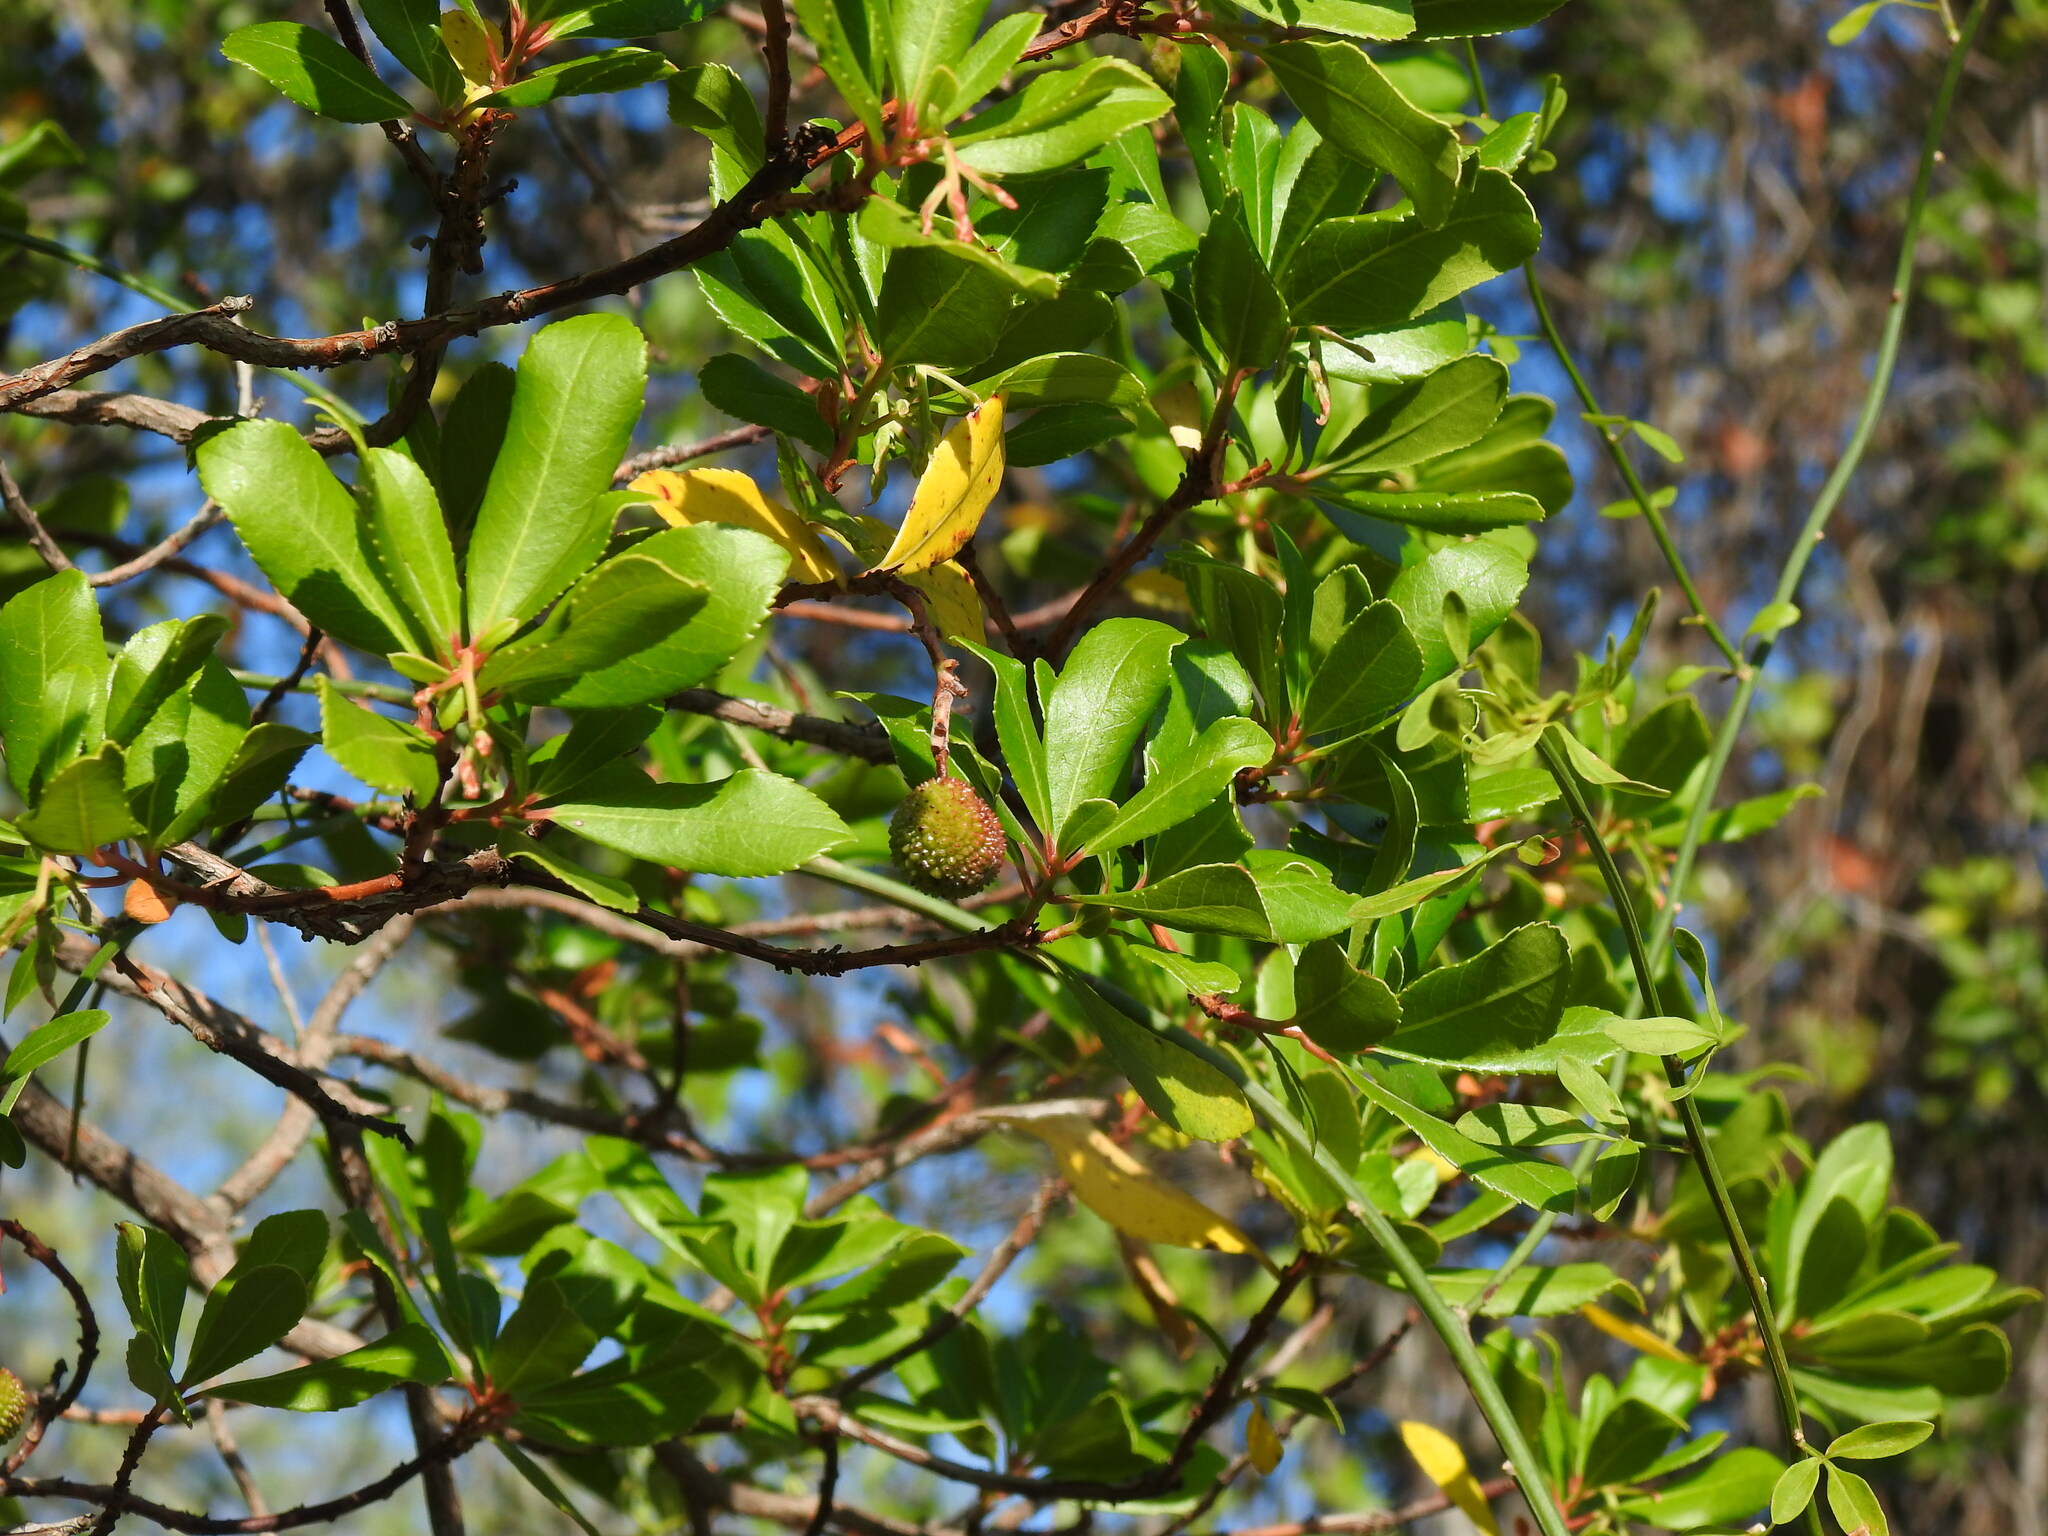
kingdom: Plantae
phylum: Tracheophyta
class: Magnoliopsida
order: Ericales
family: Ericaceae
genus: Arbutus
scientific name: Arbutus unedo
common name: Strawberry-tree
